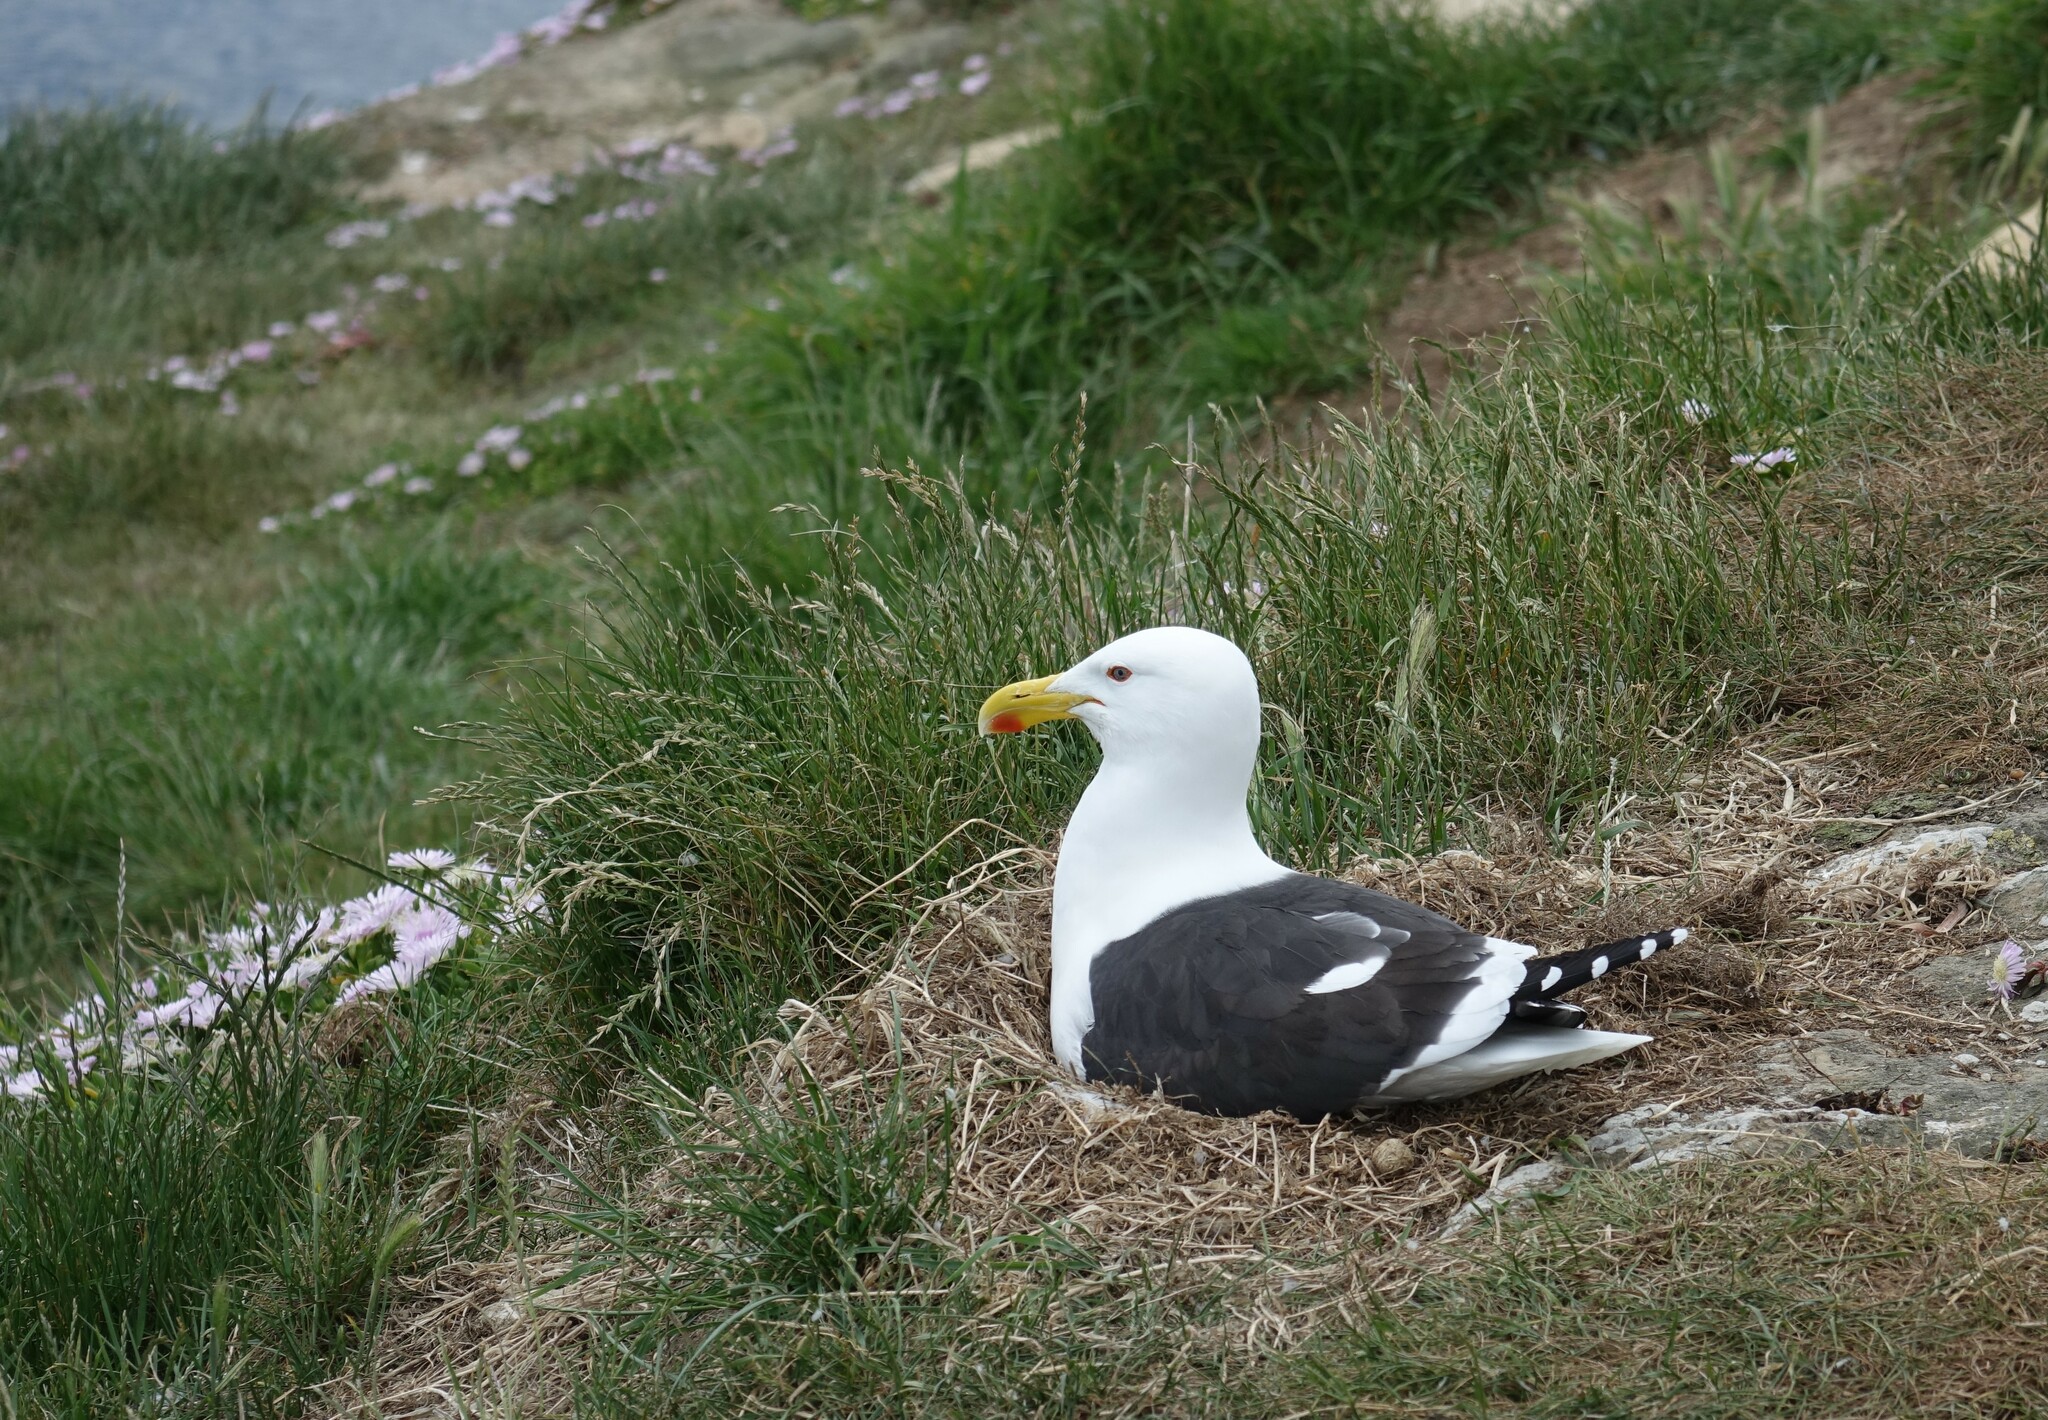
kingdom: Animalia
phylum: Chordata
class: Aves
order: Charadriiformes
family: Laridae
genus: Larus
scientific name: Larus dominicanus
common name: Kelp gull
